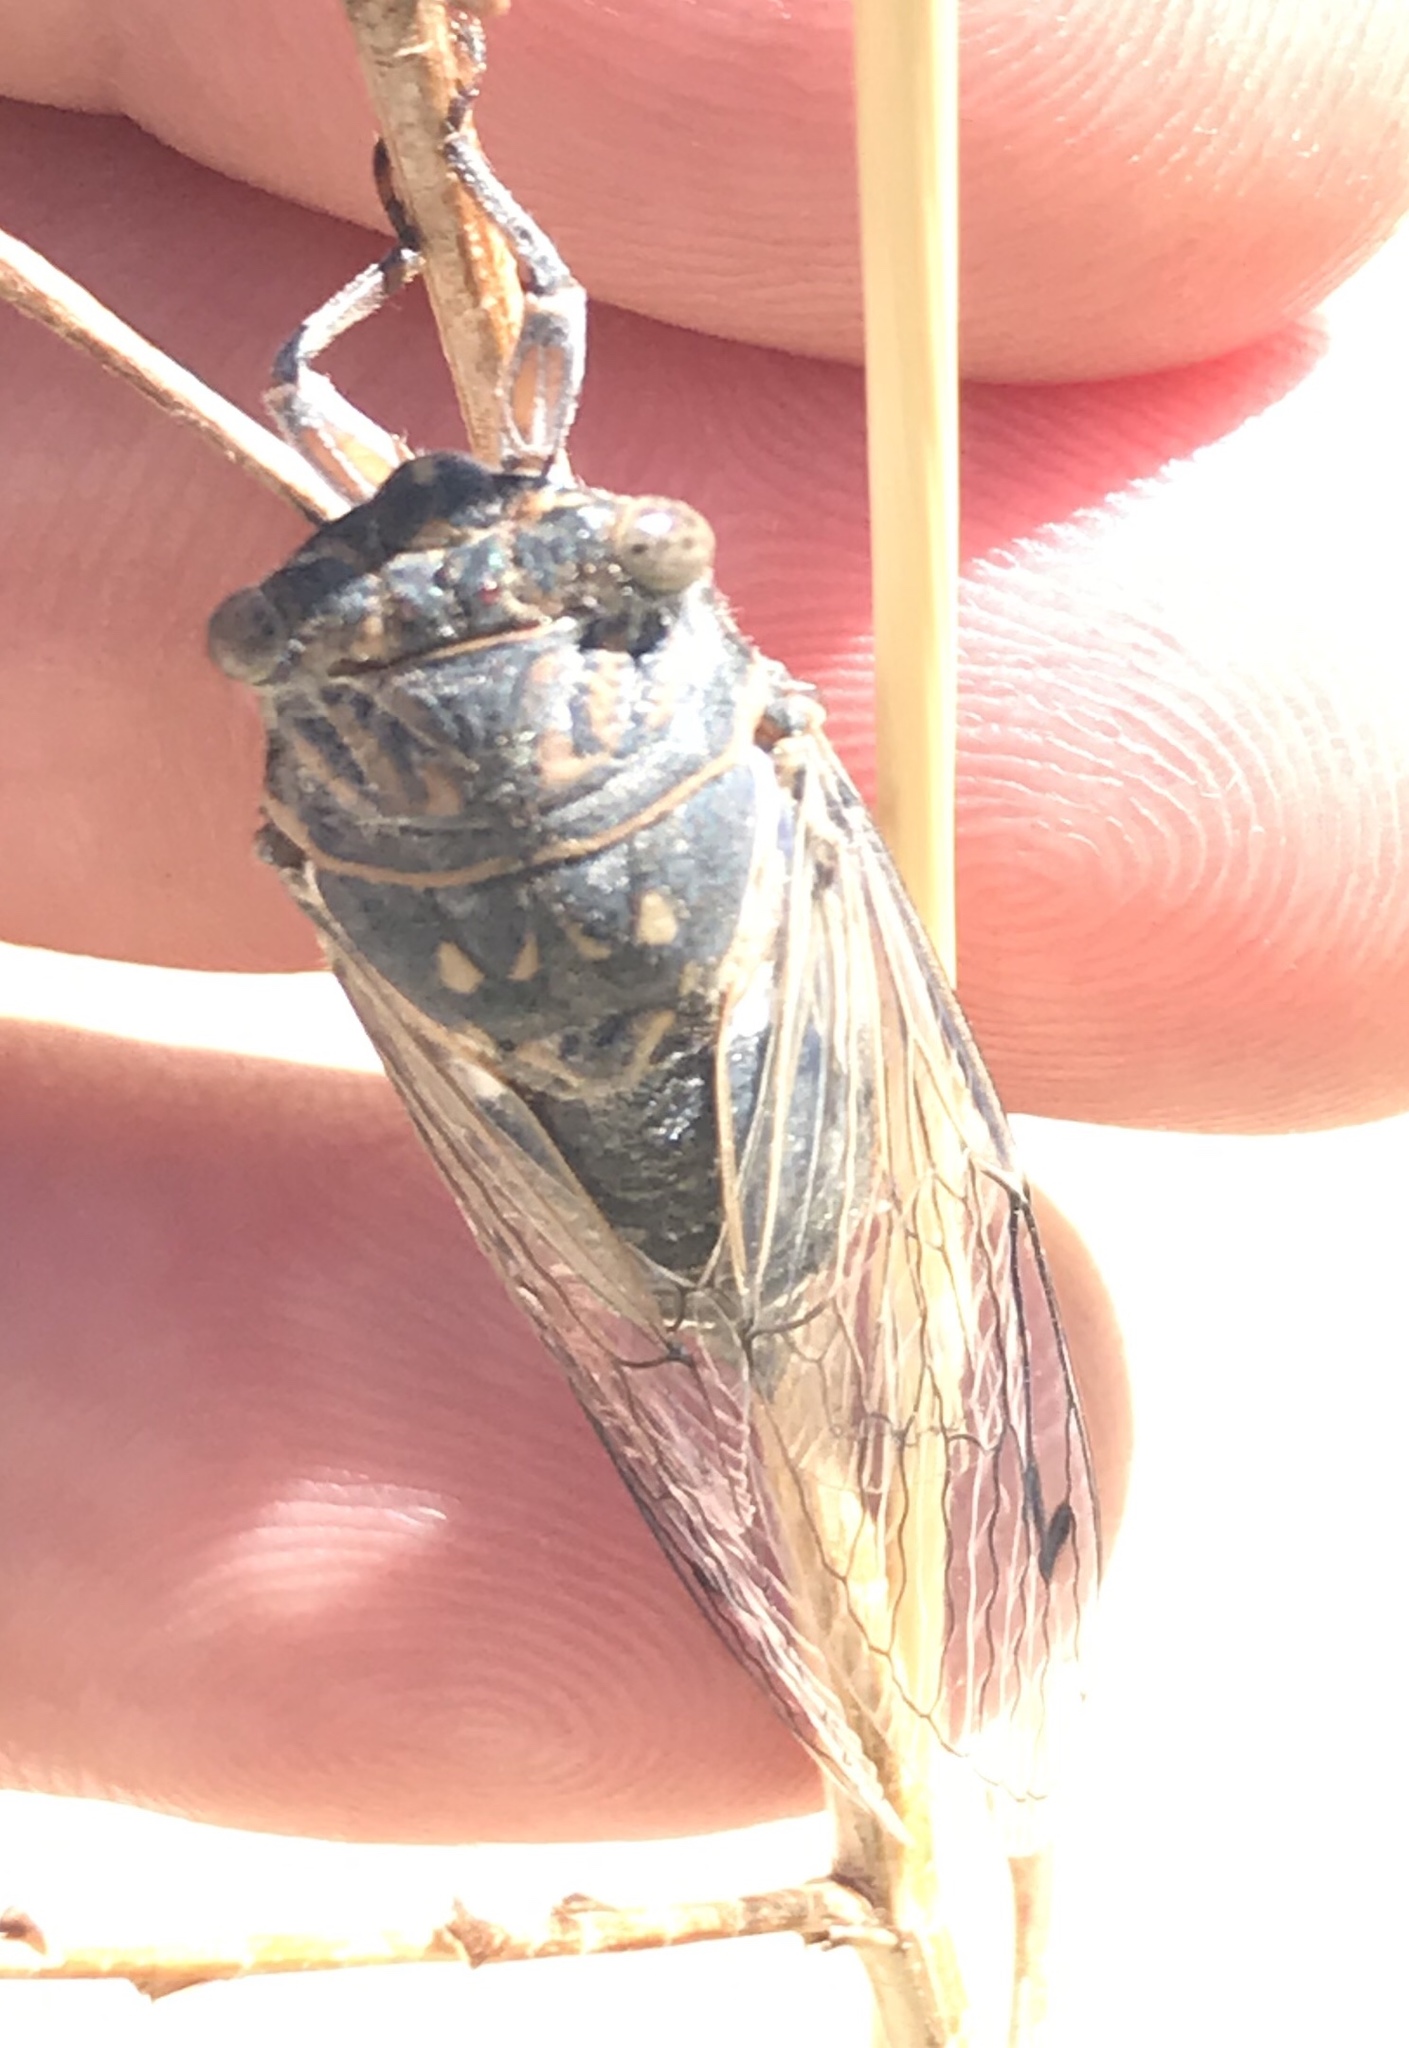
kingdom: Animalia
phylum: Arthropoda
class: Insecta
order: Hemiptera
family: Cicadidae
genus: Hadoa
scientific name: Hadoa inaudita
